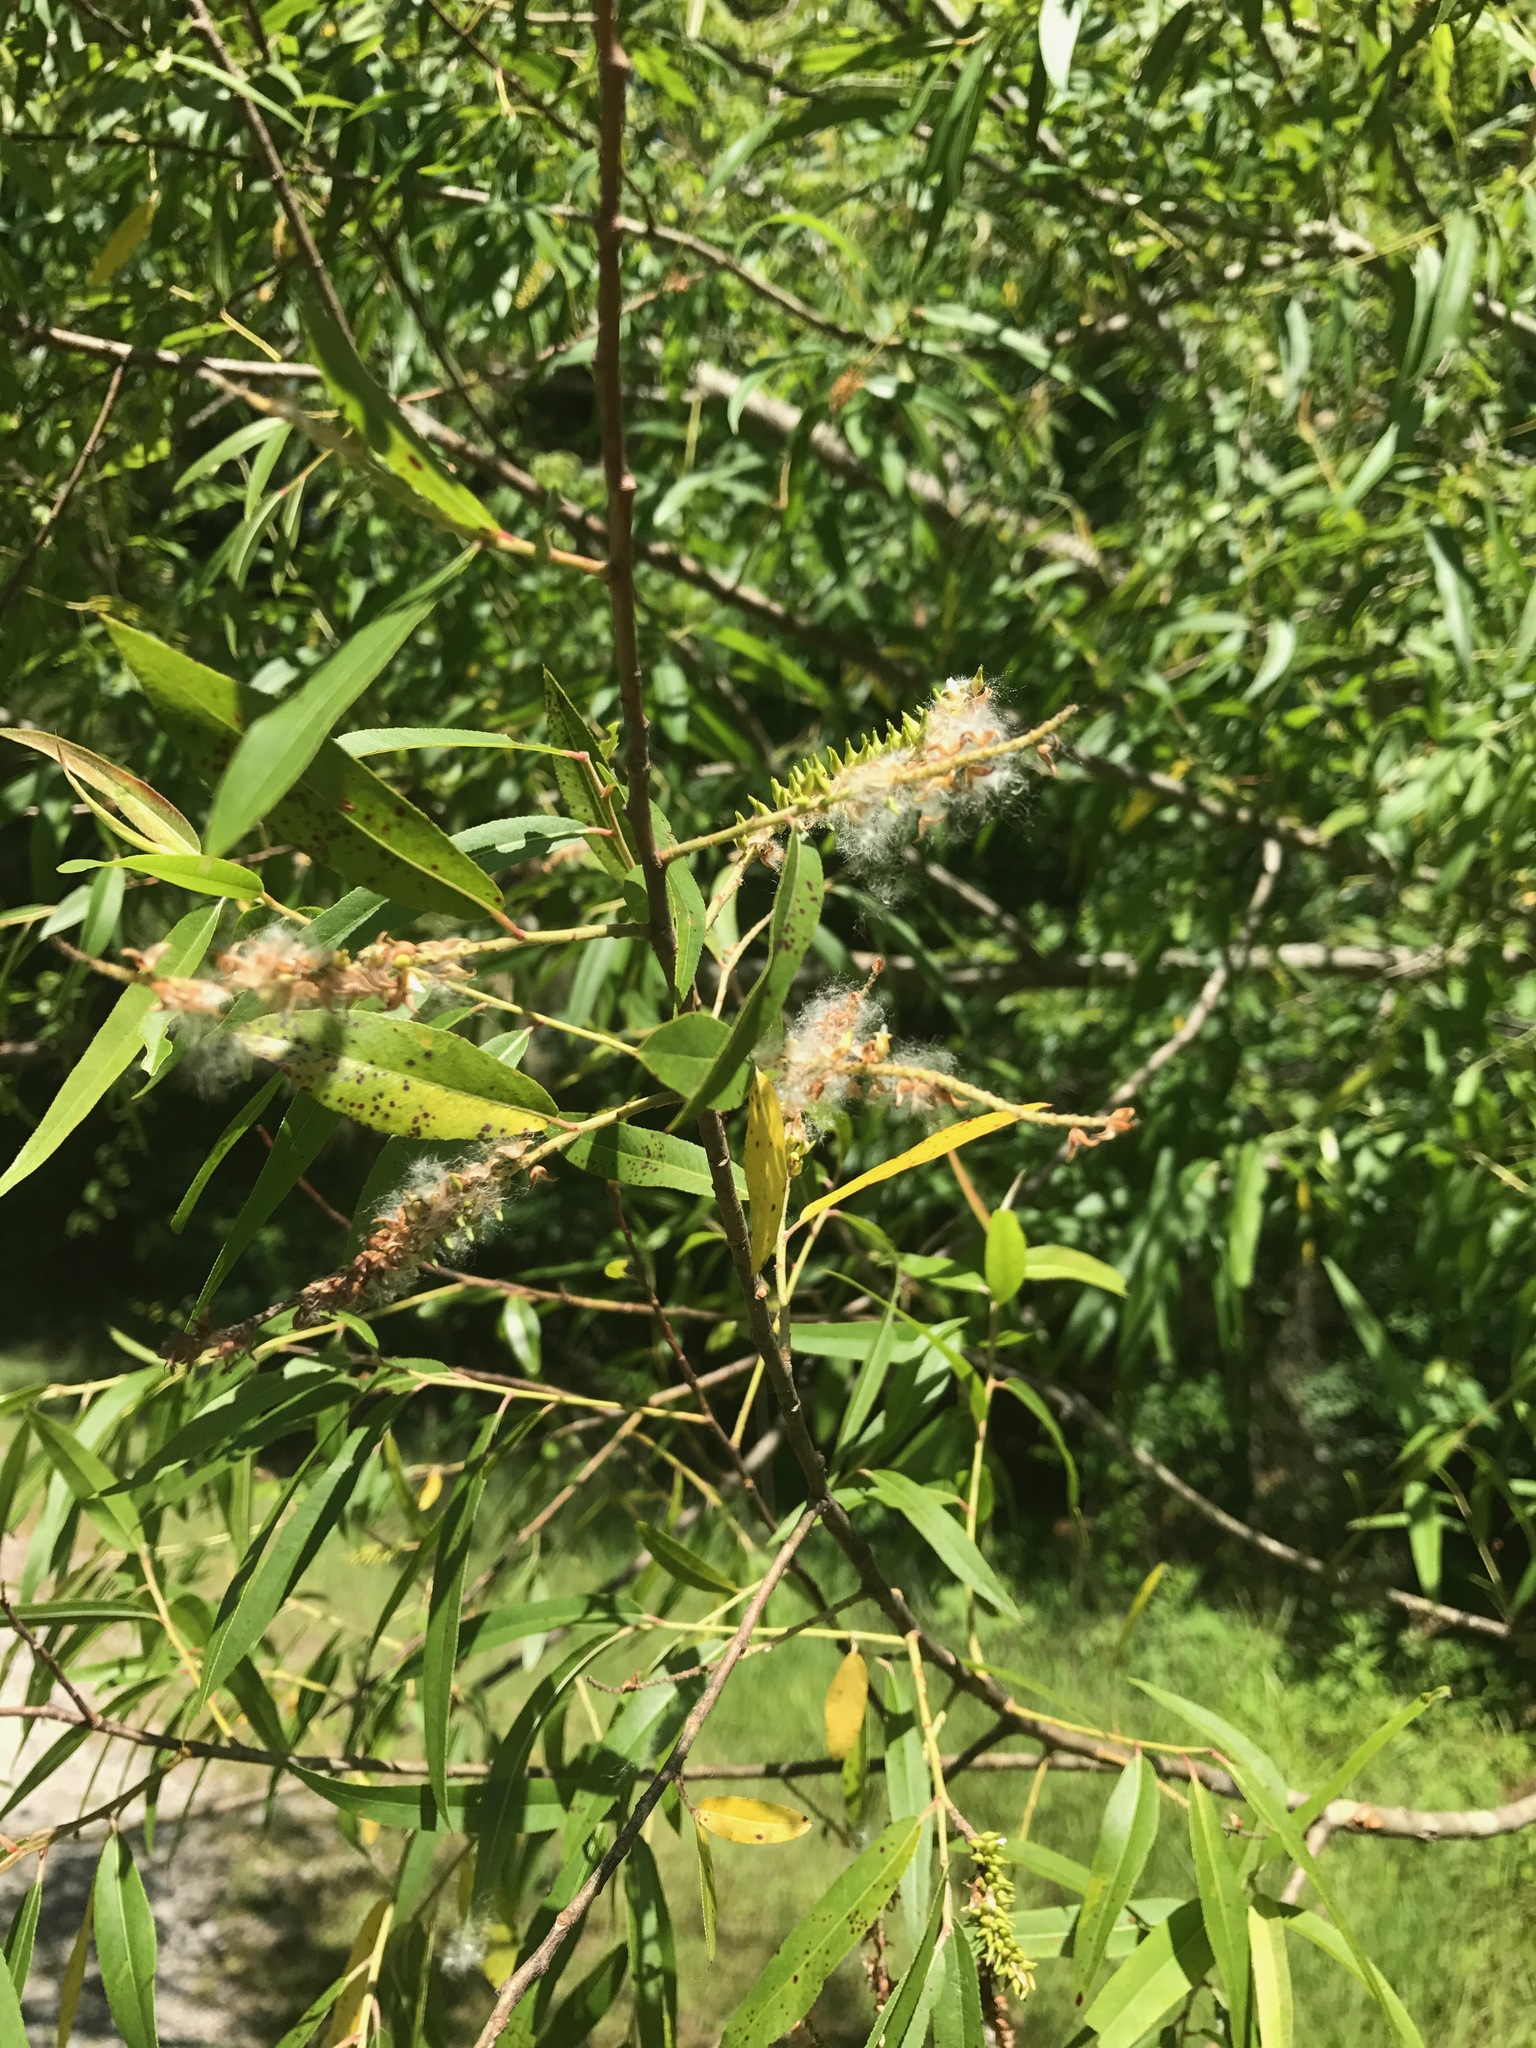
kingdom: Plantae
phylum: Tracheophyta
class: Magnoliopsida
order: Malpighiales
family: Salicaceae
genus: Salix
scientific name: Salix nigra
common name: Black willow
